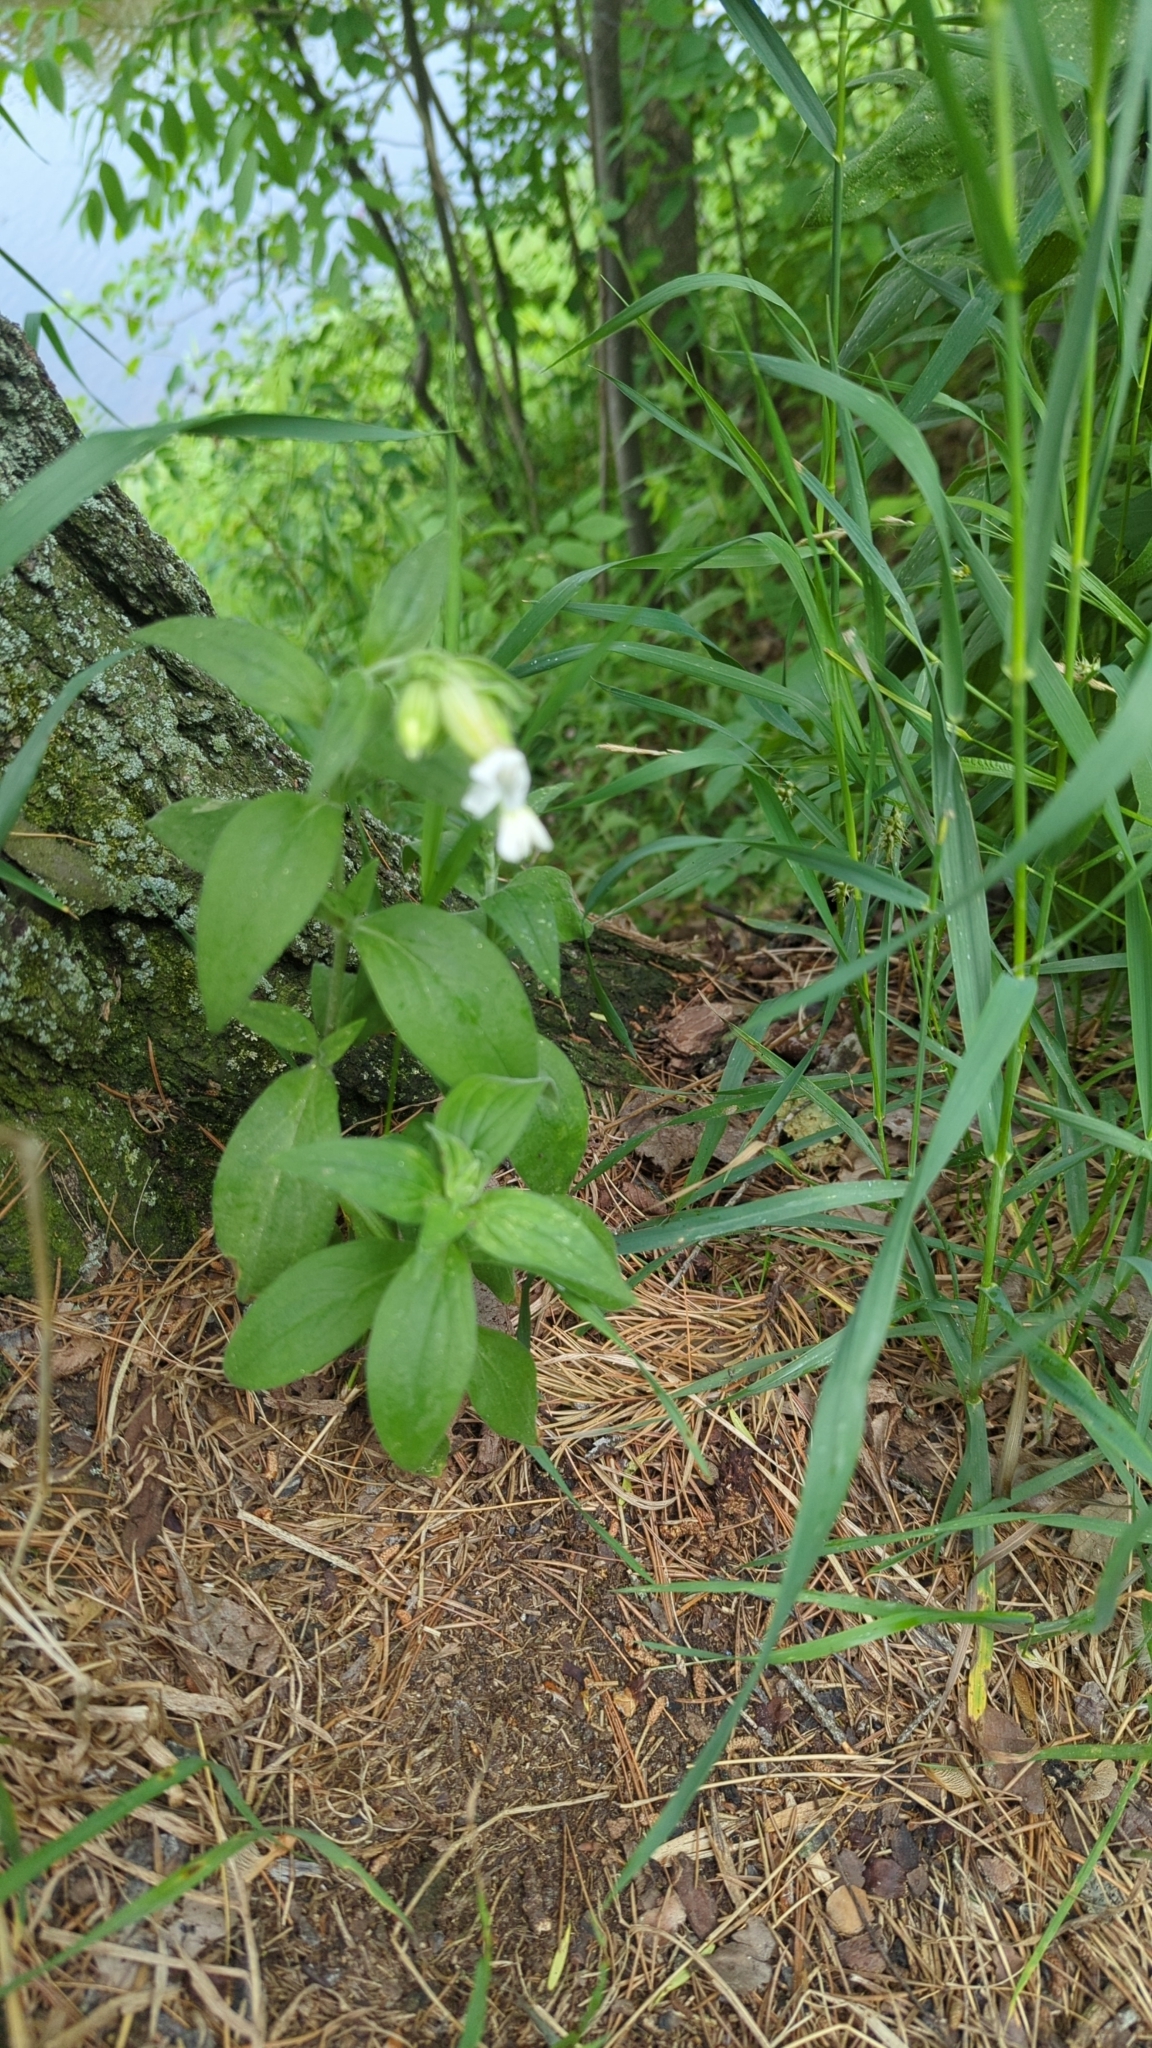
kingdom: Plantae
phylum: Tracheophyta
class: Magnoliopsida
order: Caryophyllales
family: Caryophyllaceae
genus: Silene
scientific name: Silene latifolia
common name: White campion
